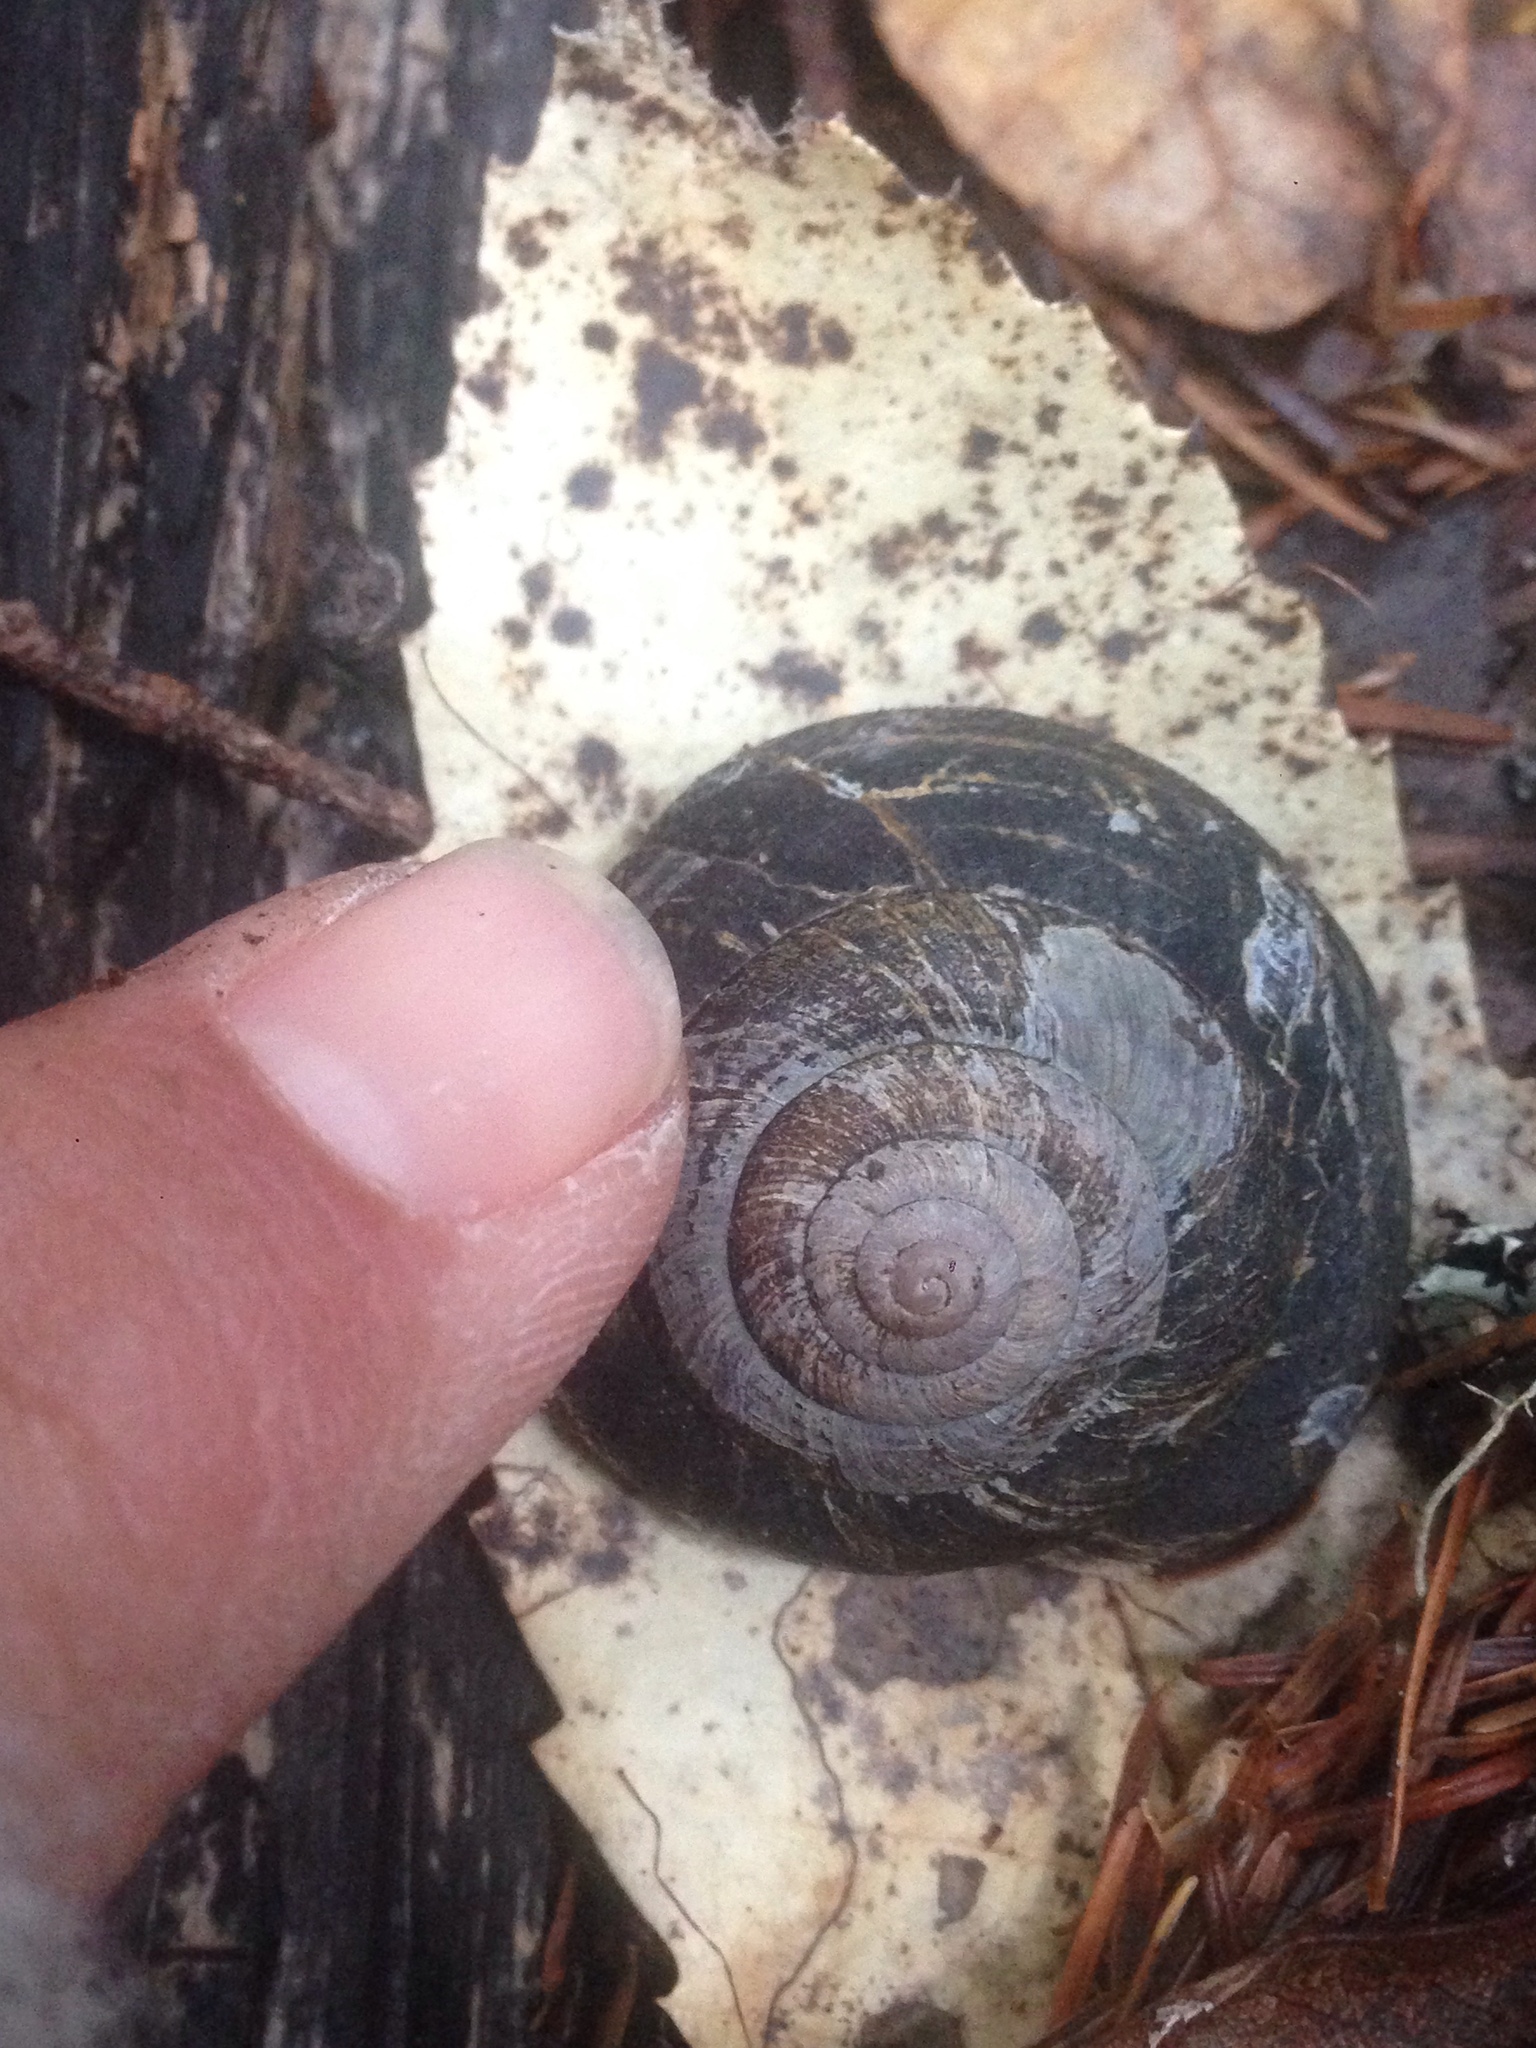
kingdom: Animalia
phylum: Mollusca
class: Gastropoda
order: Stylommatophora
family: Xanthonychidae
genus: Monadenia
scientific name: Monadenia infumata
